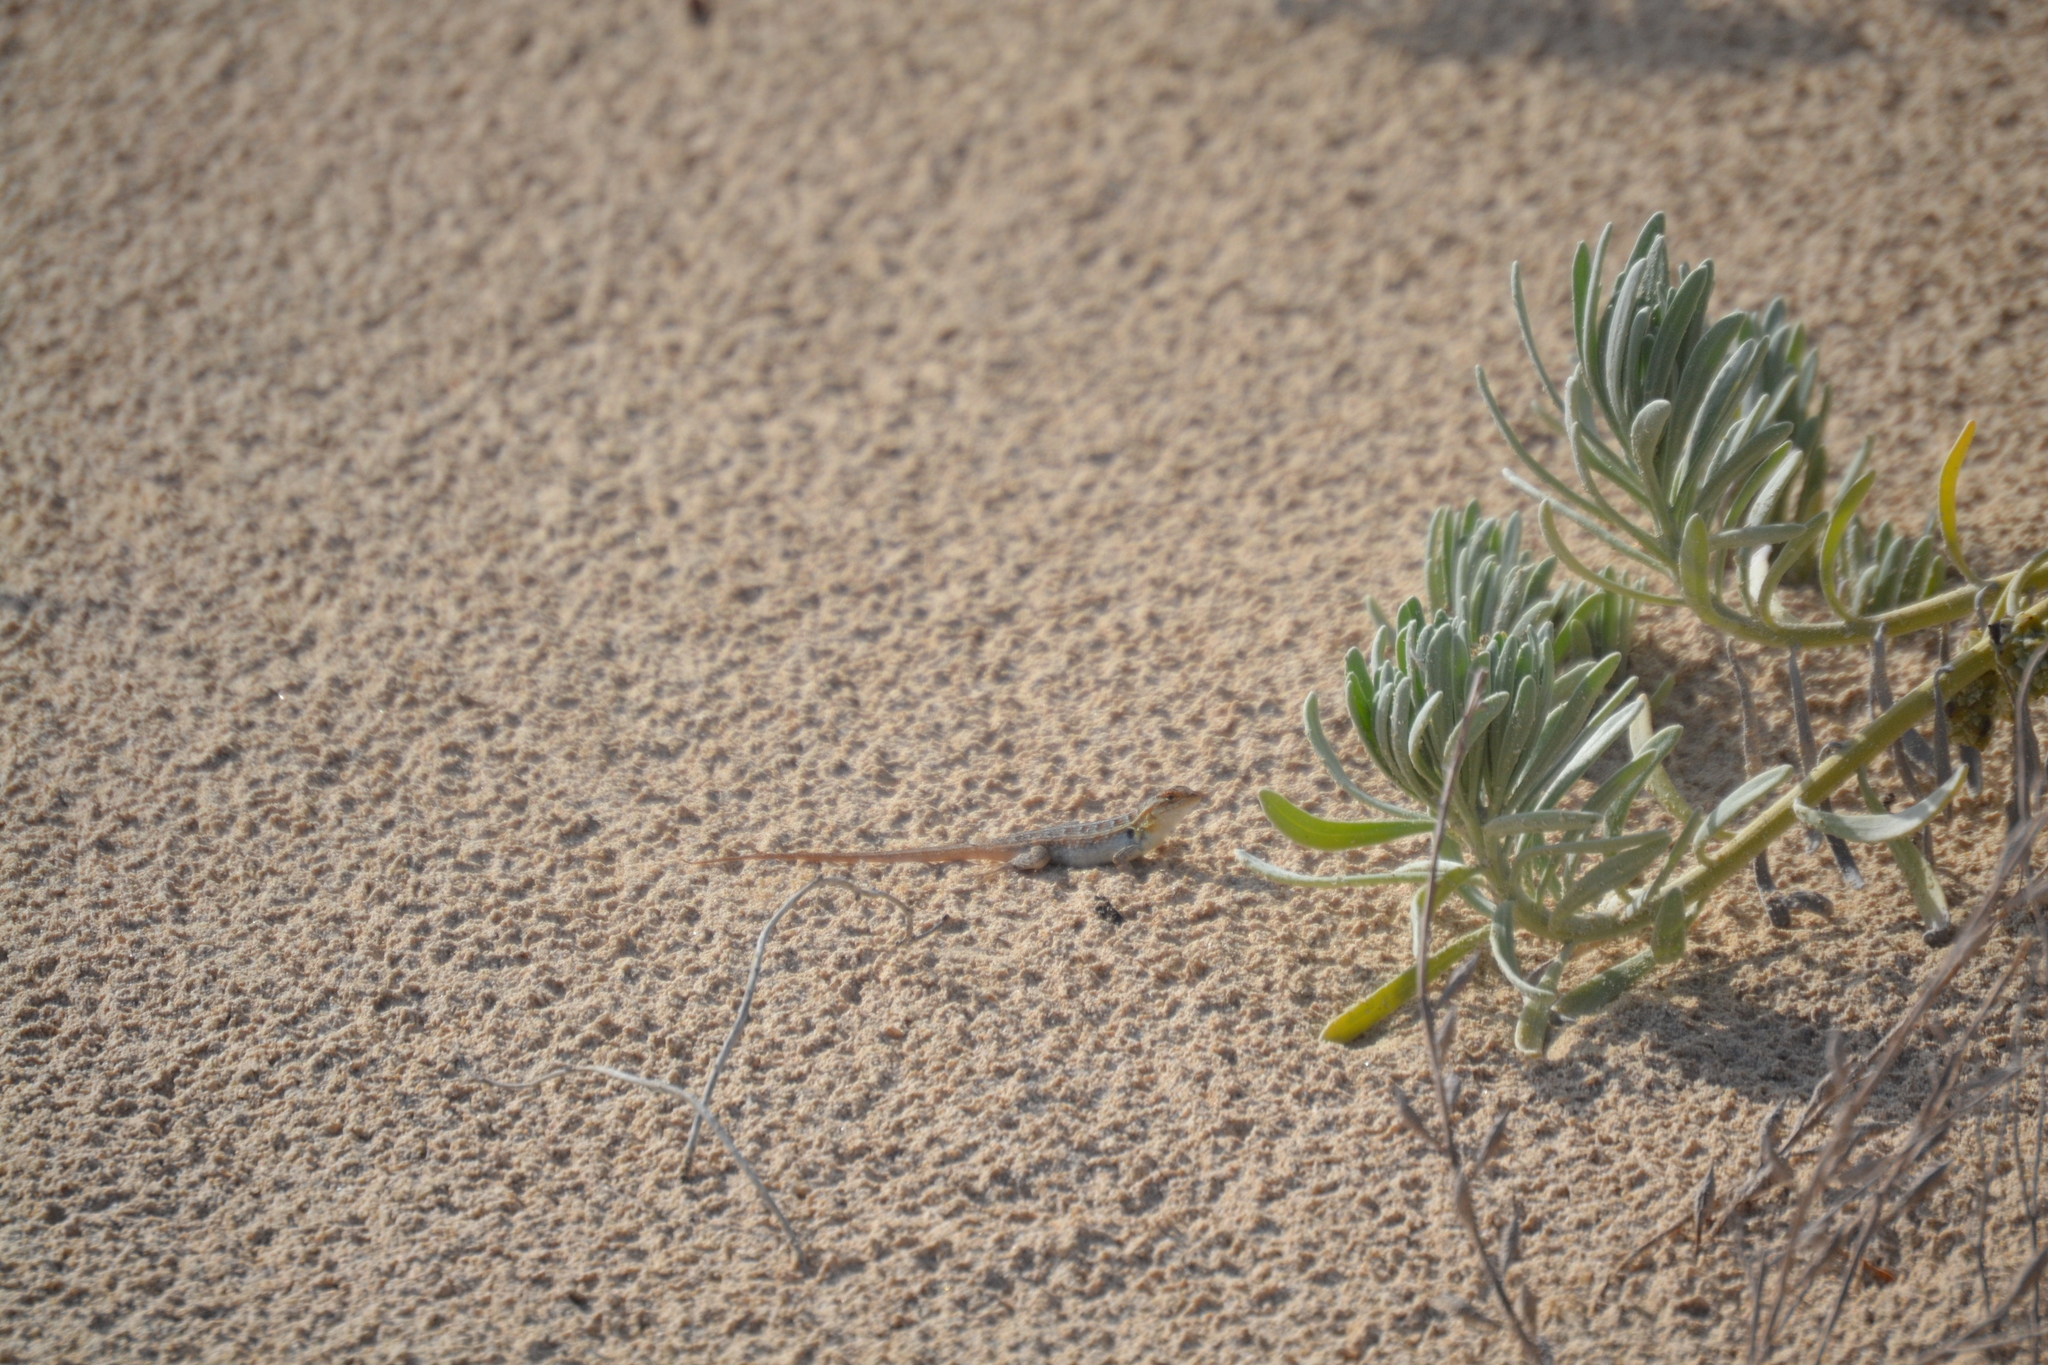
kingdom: Animalia
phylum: Chordata
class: Squamata
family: Phrynosomatidae
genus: Sceloporus
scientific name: Sceloporus cozumelae
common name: Cozumel spiny lizard
